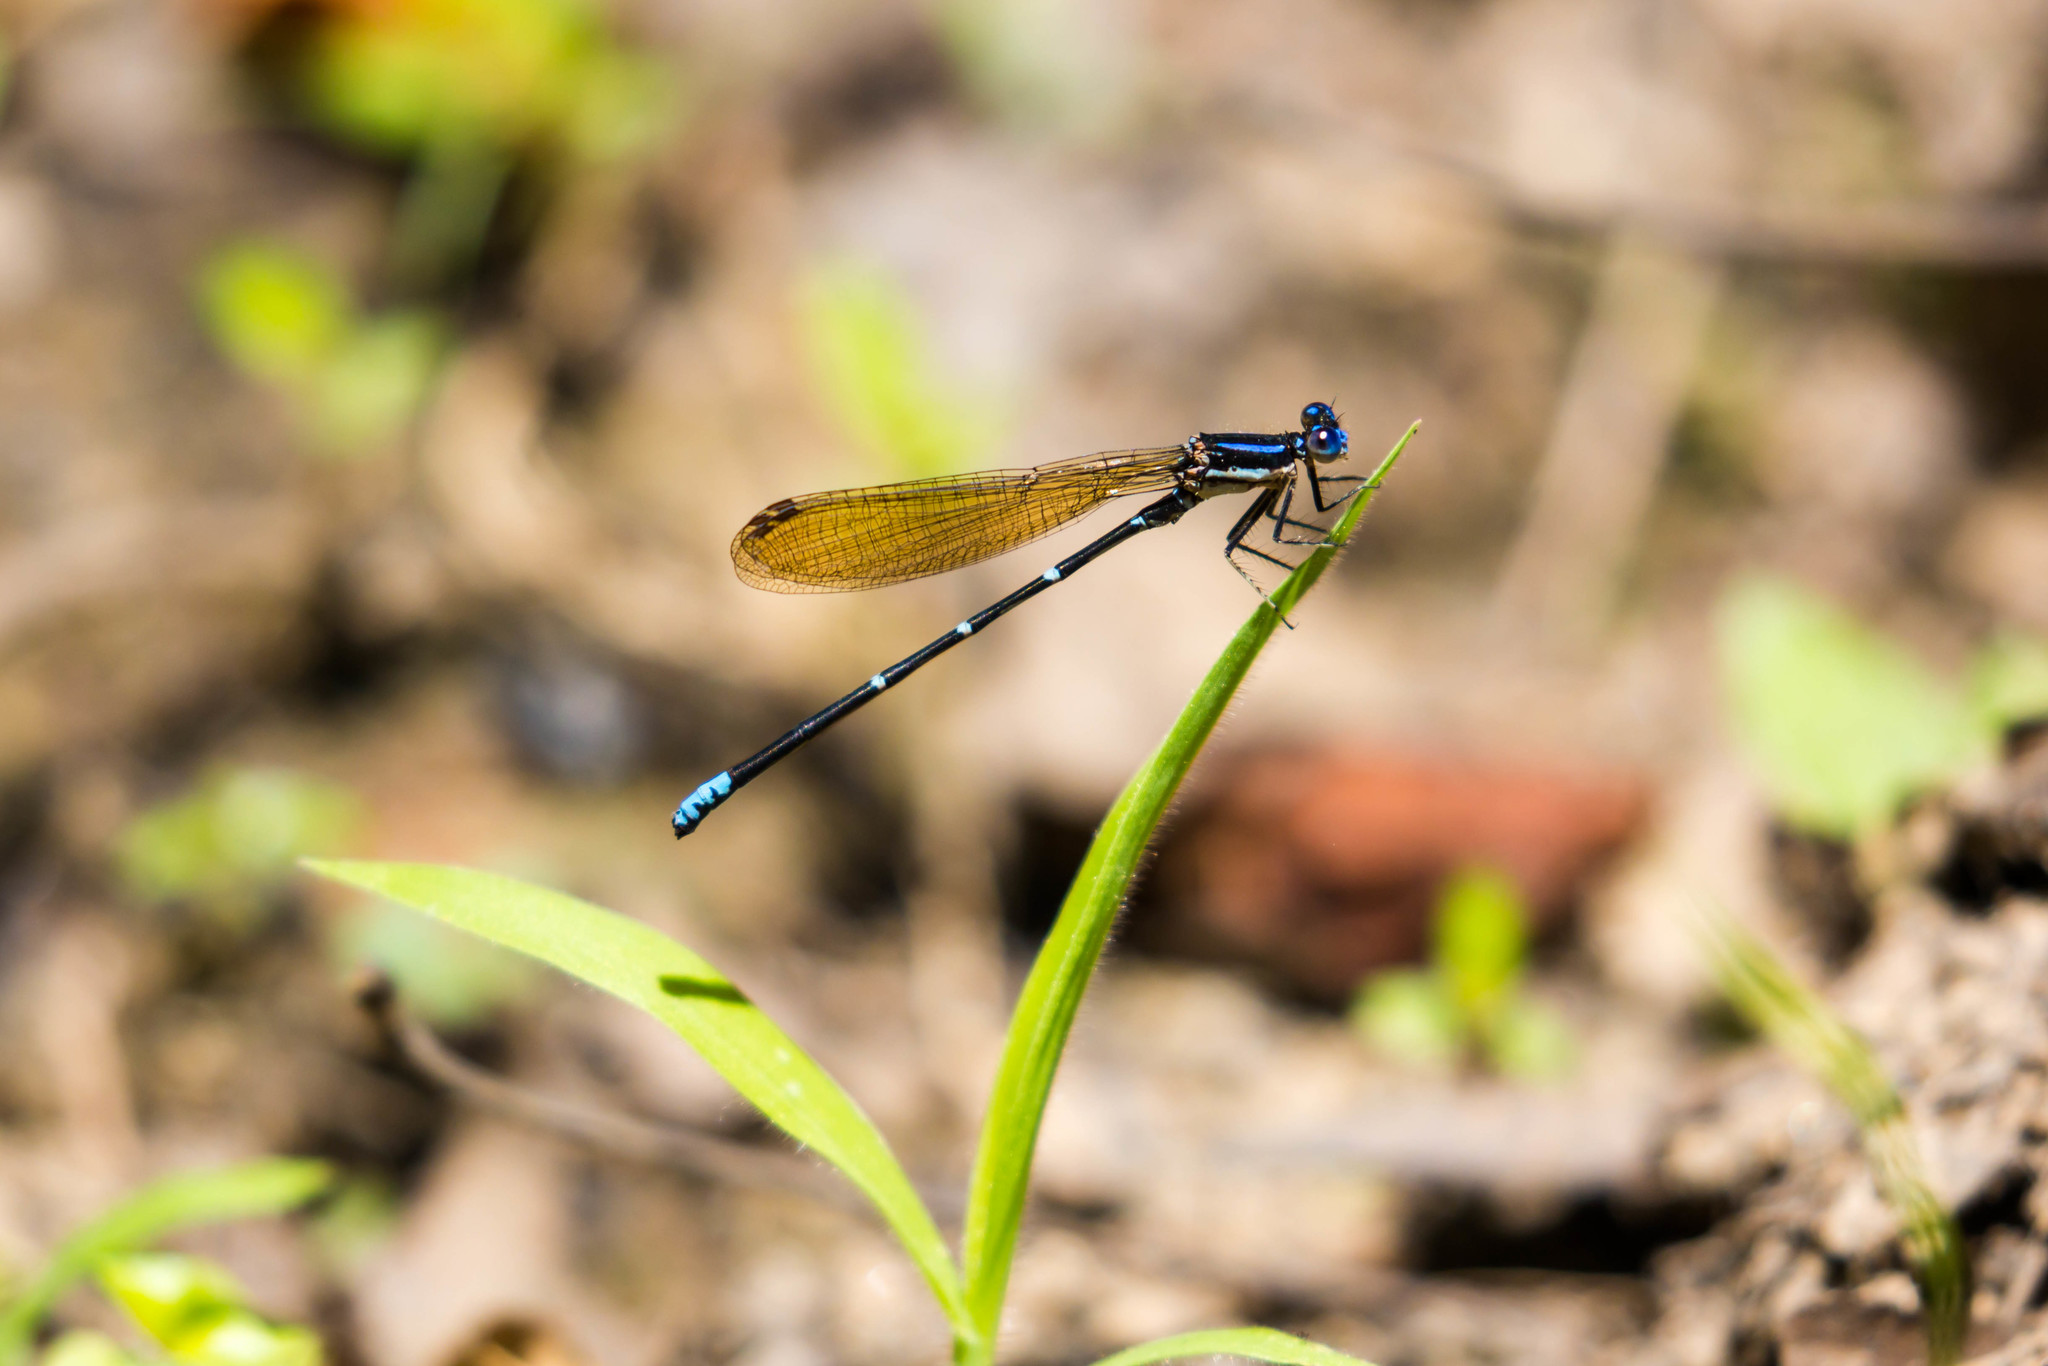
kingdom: Animalia
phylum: Arthropoda
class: Insecta
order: Odonata
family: Coenagrionidae
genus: Argia
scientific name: Argia sedula
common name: Blue-ringed dancer
